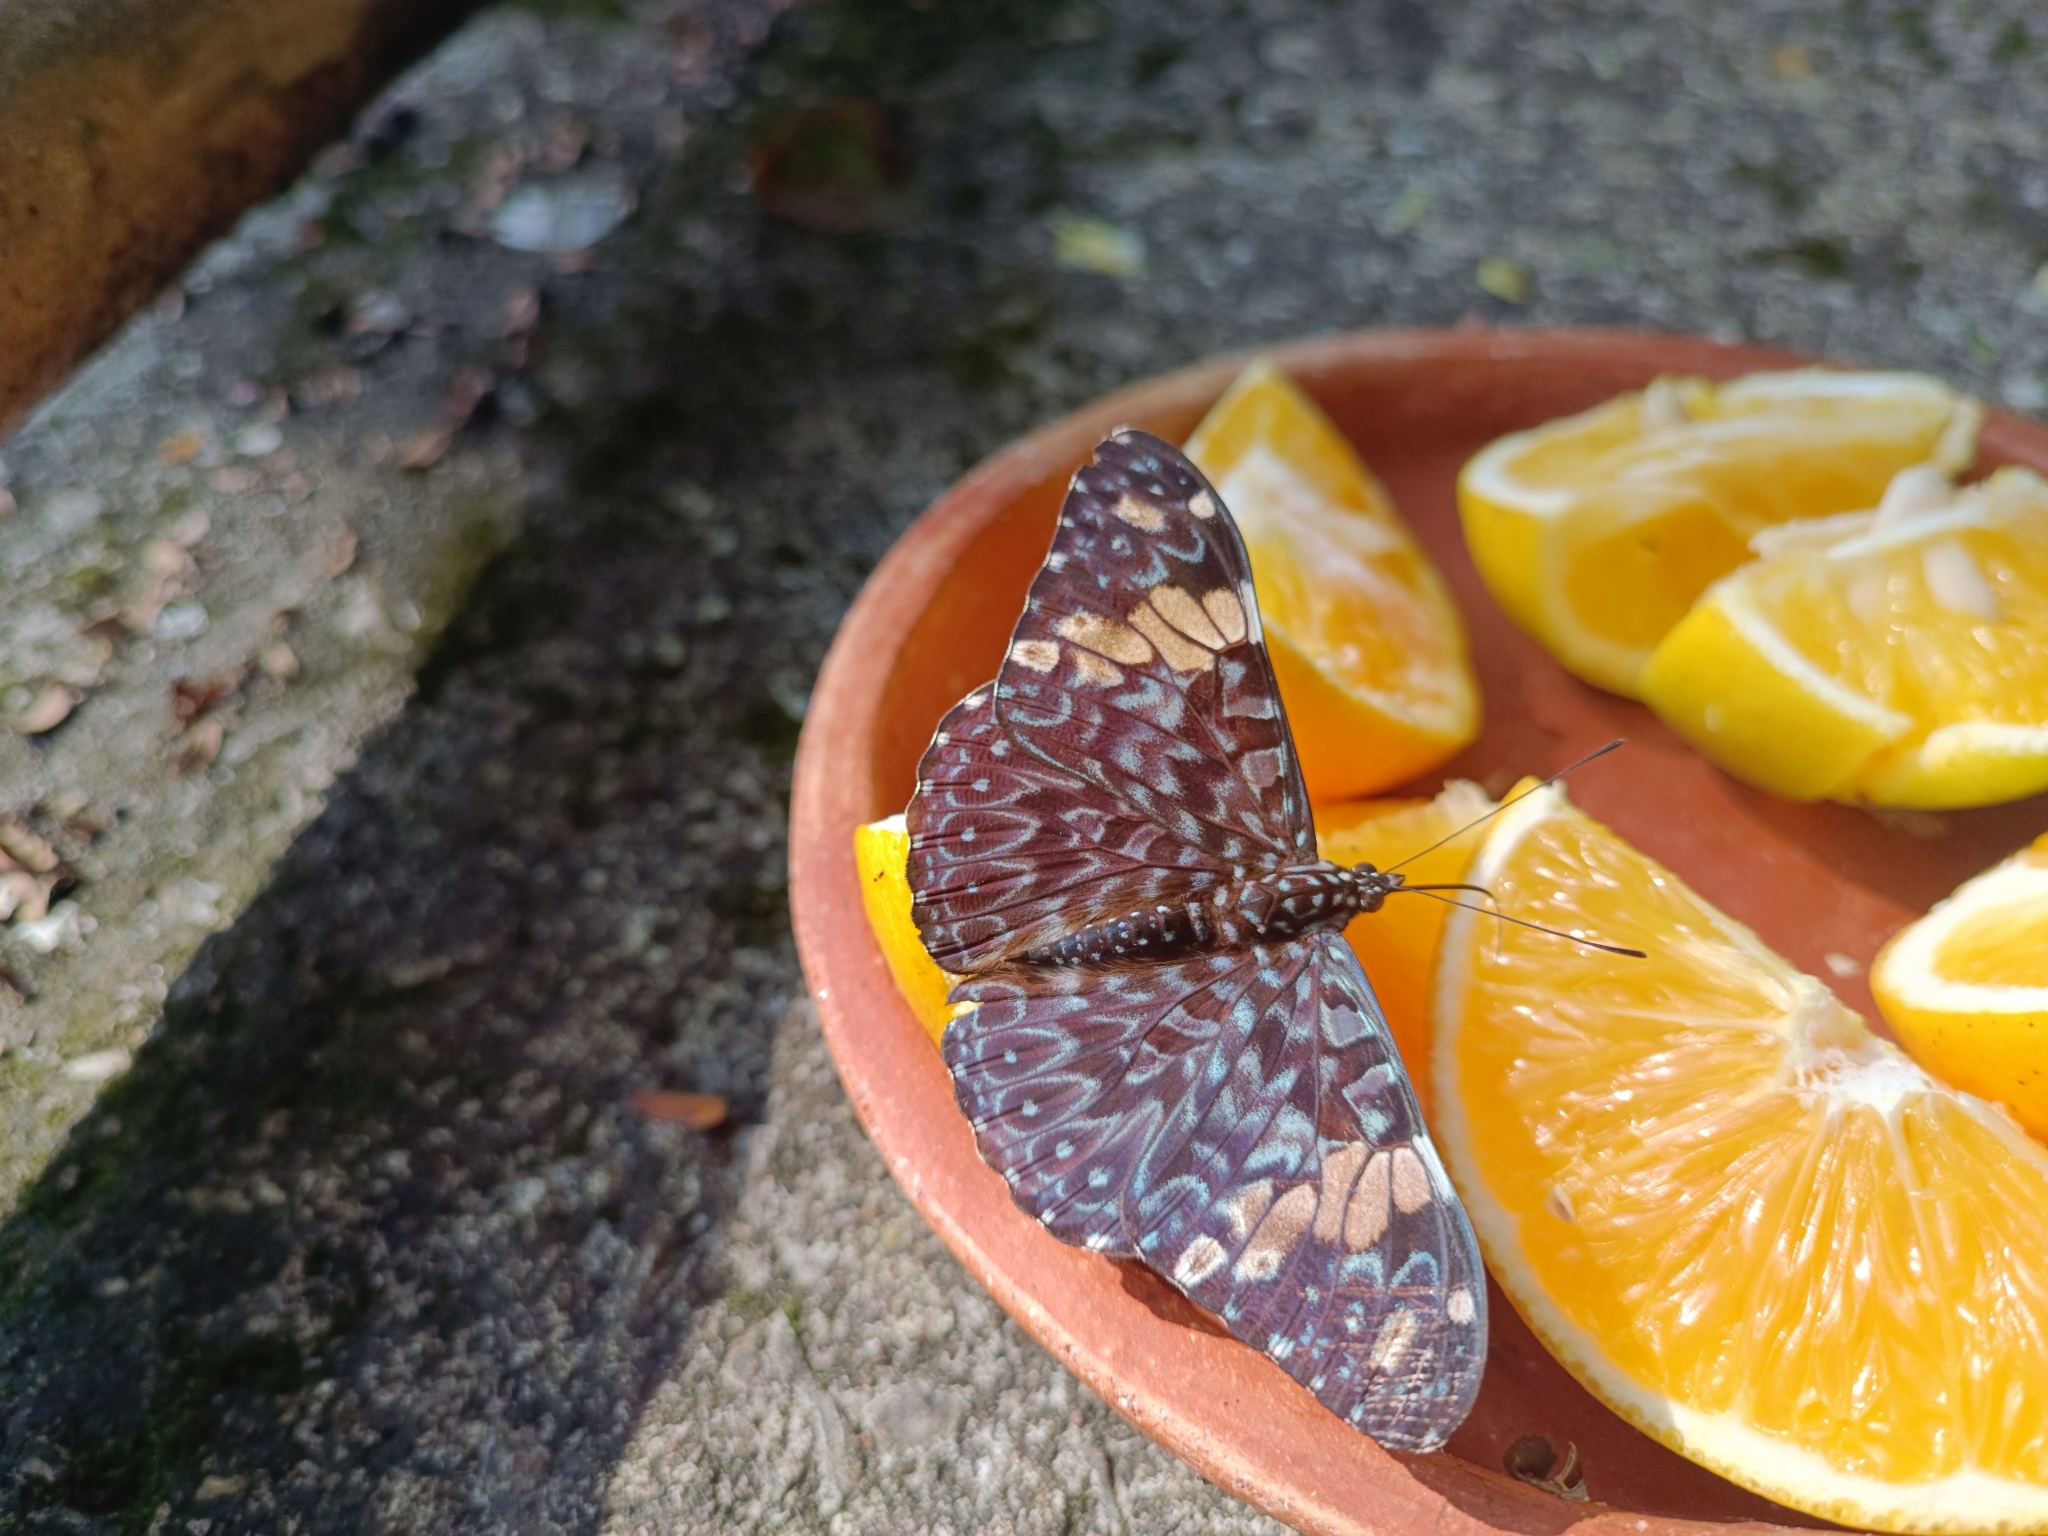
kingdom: Animalia
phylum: Arthropoda
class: Insecta
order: Lepidoptera
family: Nymphalidae
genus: Hamadryas
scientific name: Hamadryas amphinome
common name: Red cracker
